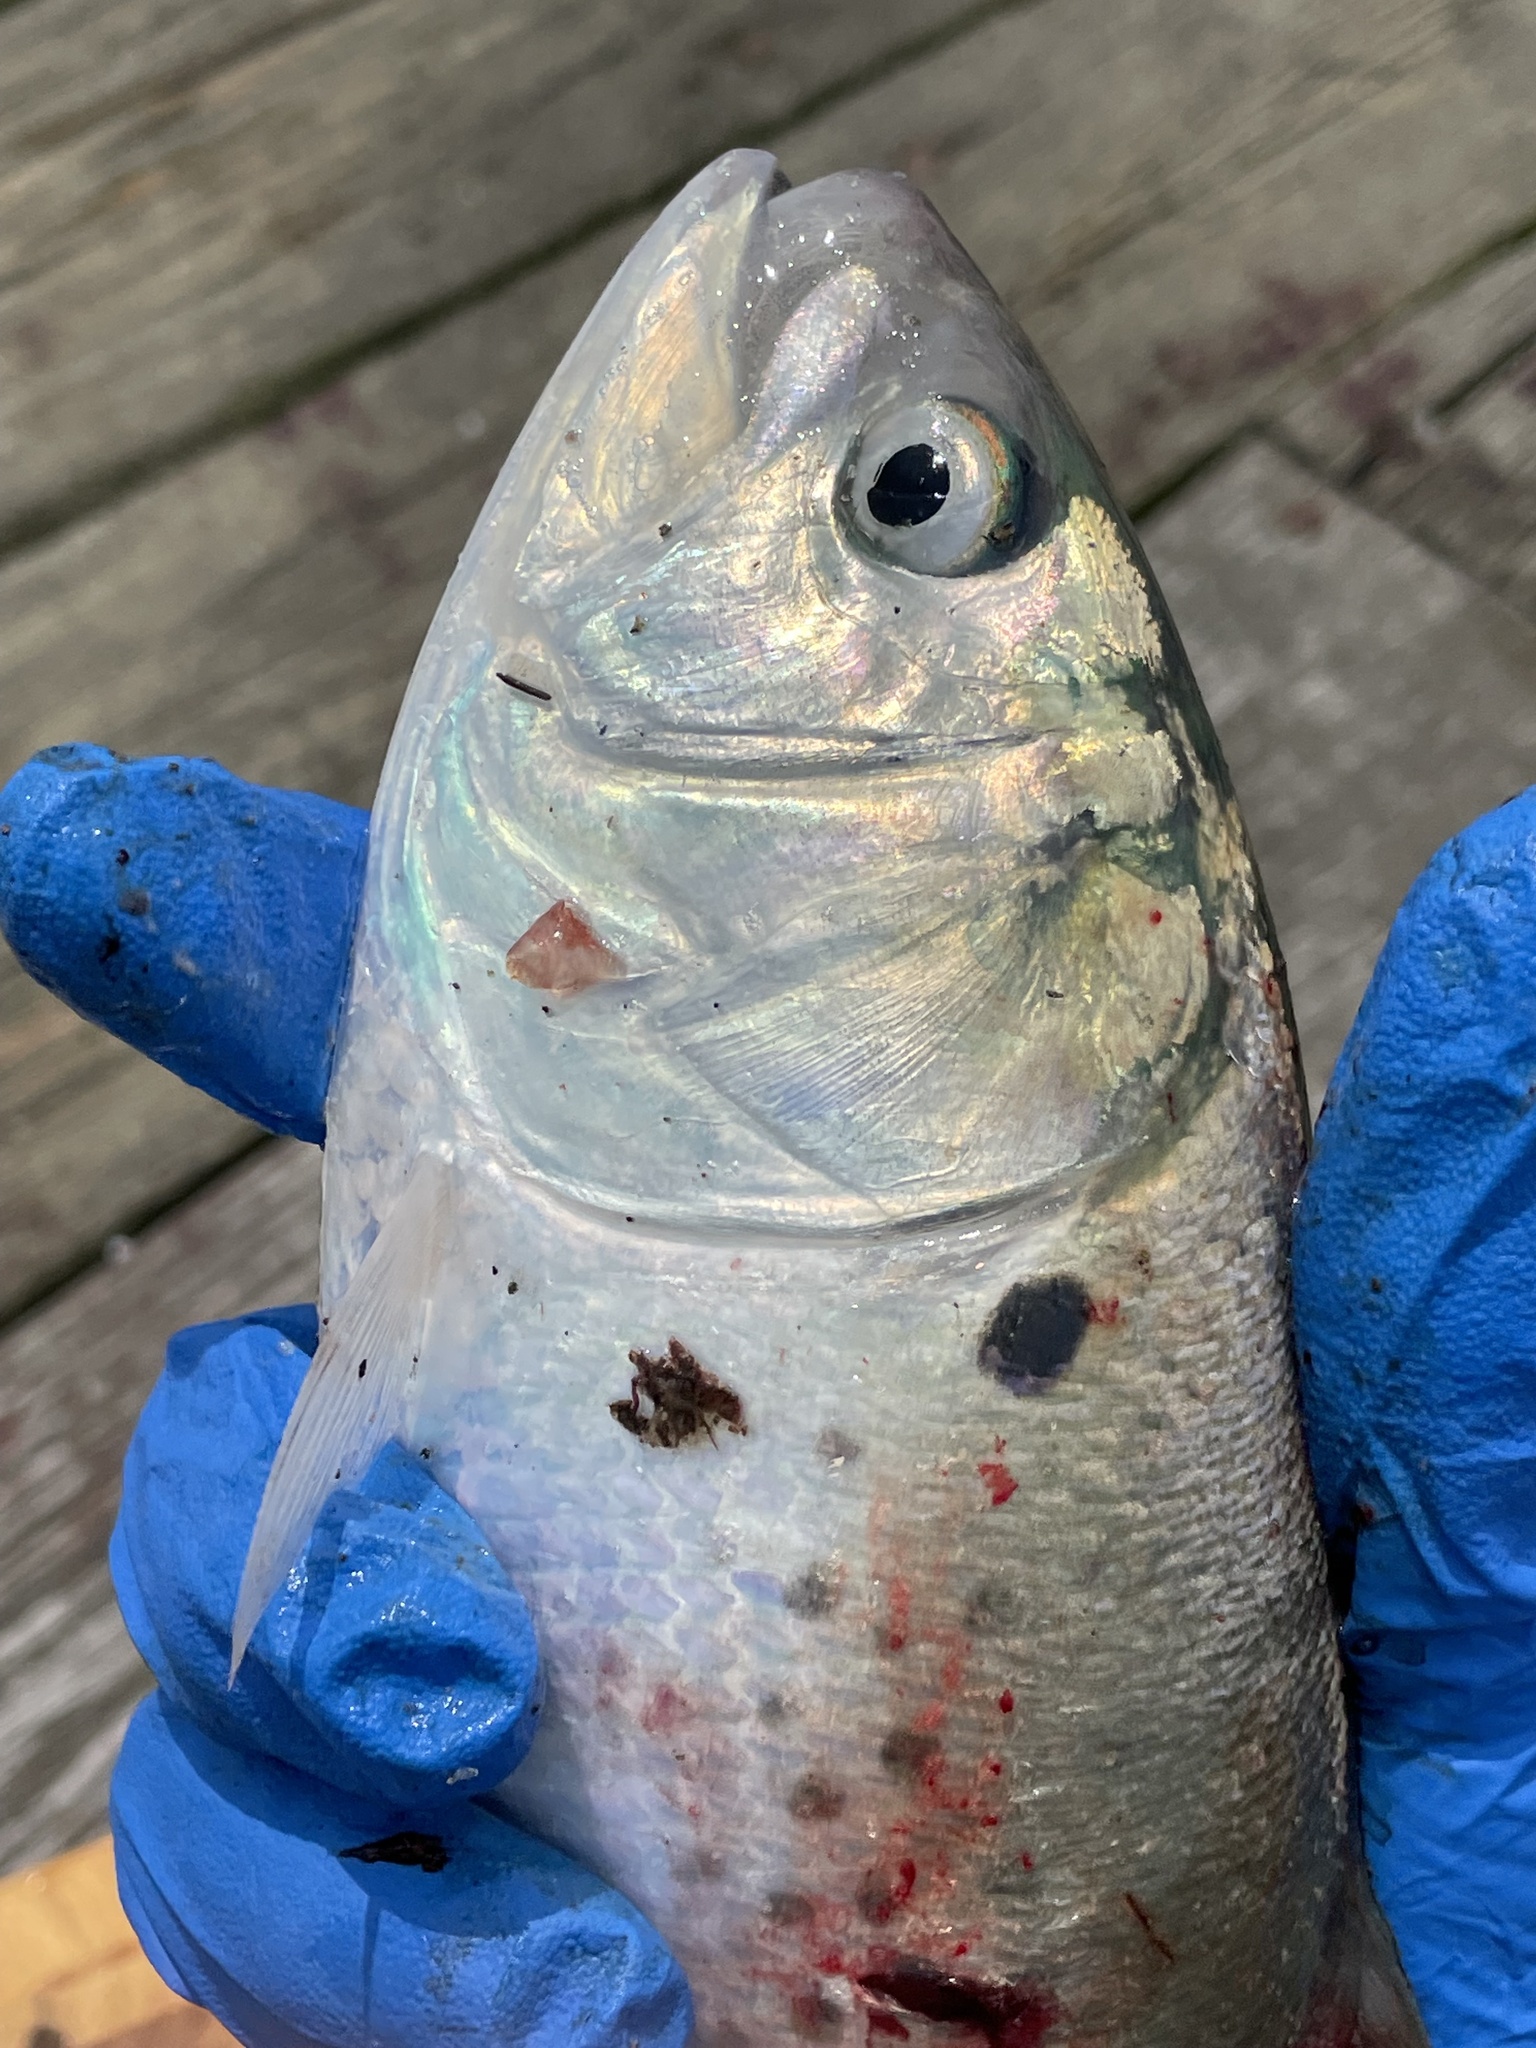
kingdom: Animalia
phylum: Chordata
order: Clupeiformes
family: Clupeidae
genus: Brevoortia
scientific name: Brevoortia tyrannus
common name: Atlantic menhaden
